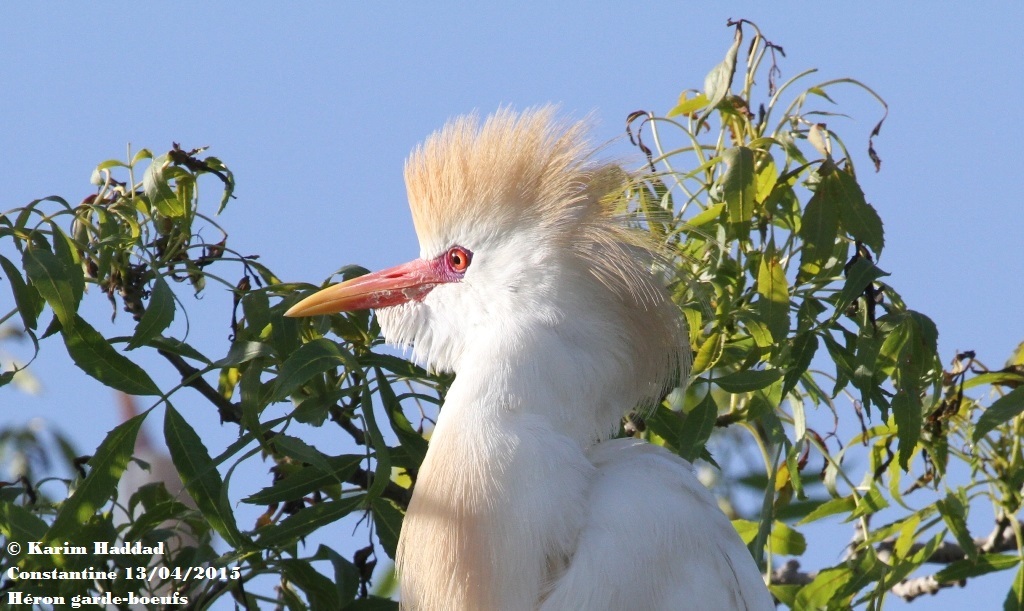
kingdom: Animalia
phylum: Chordata
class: Aves
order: Pelecaniformes
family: Ardeidae
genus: Bubulcus
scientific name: Bubulcus ibis
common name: Cattle egret
